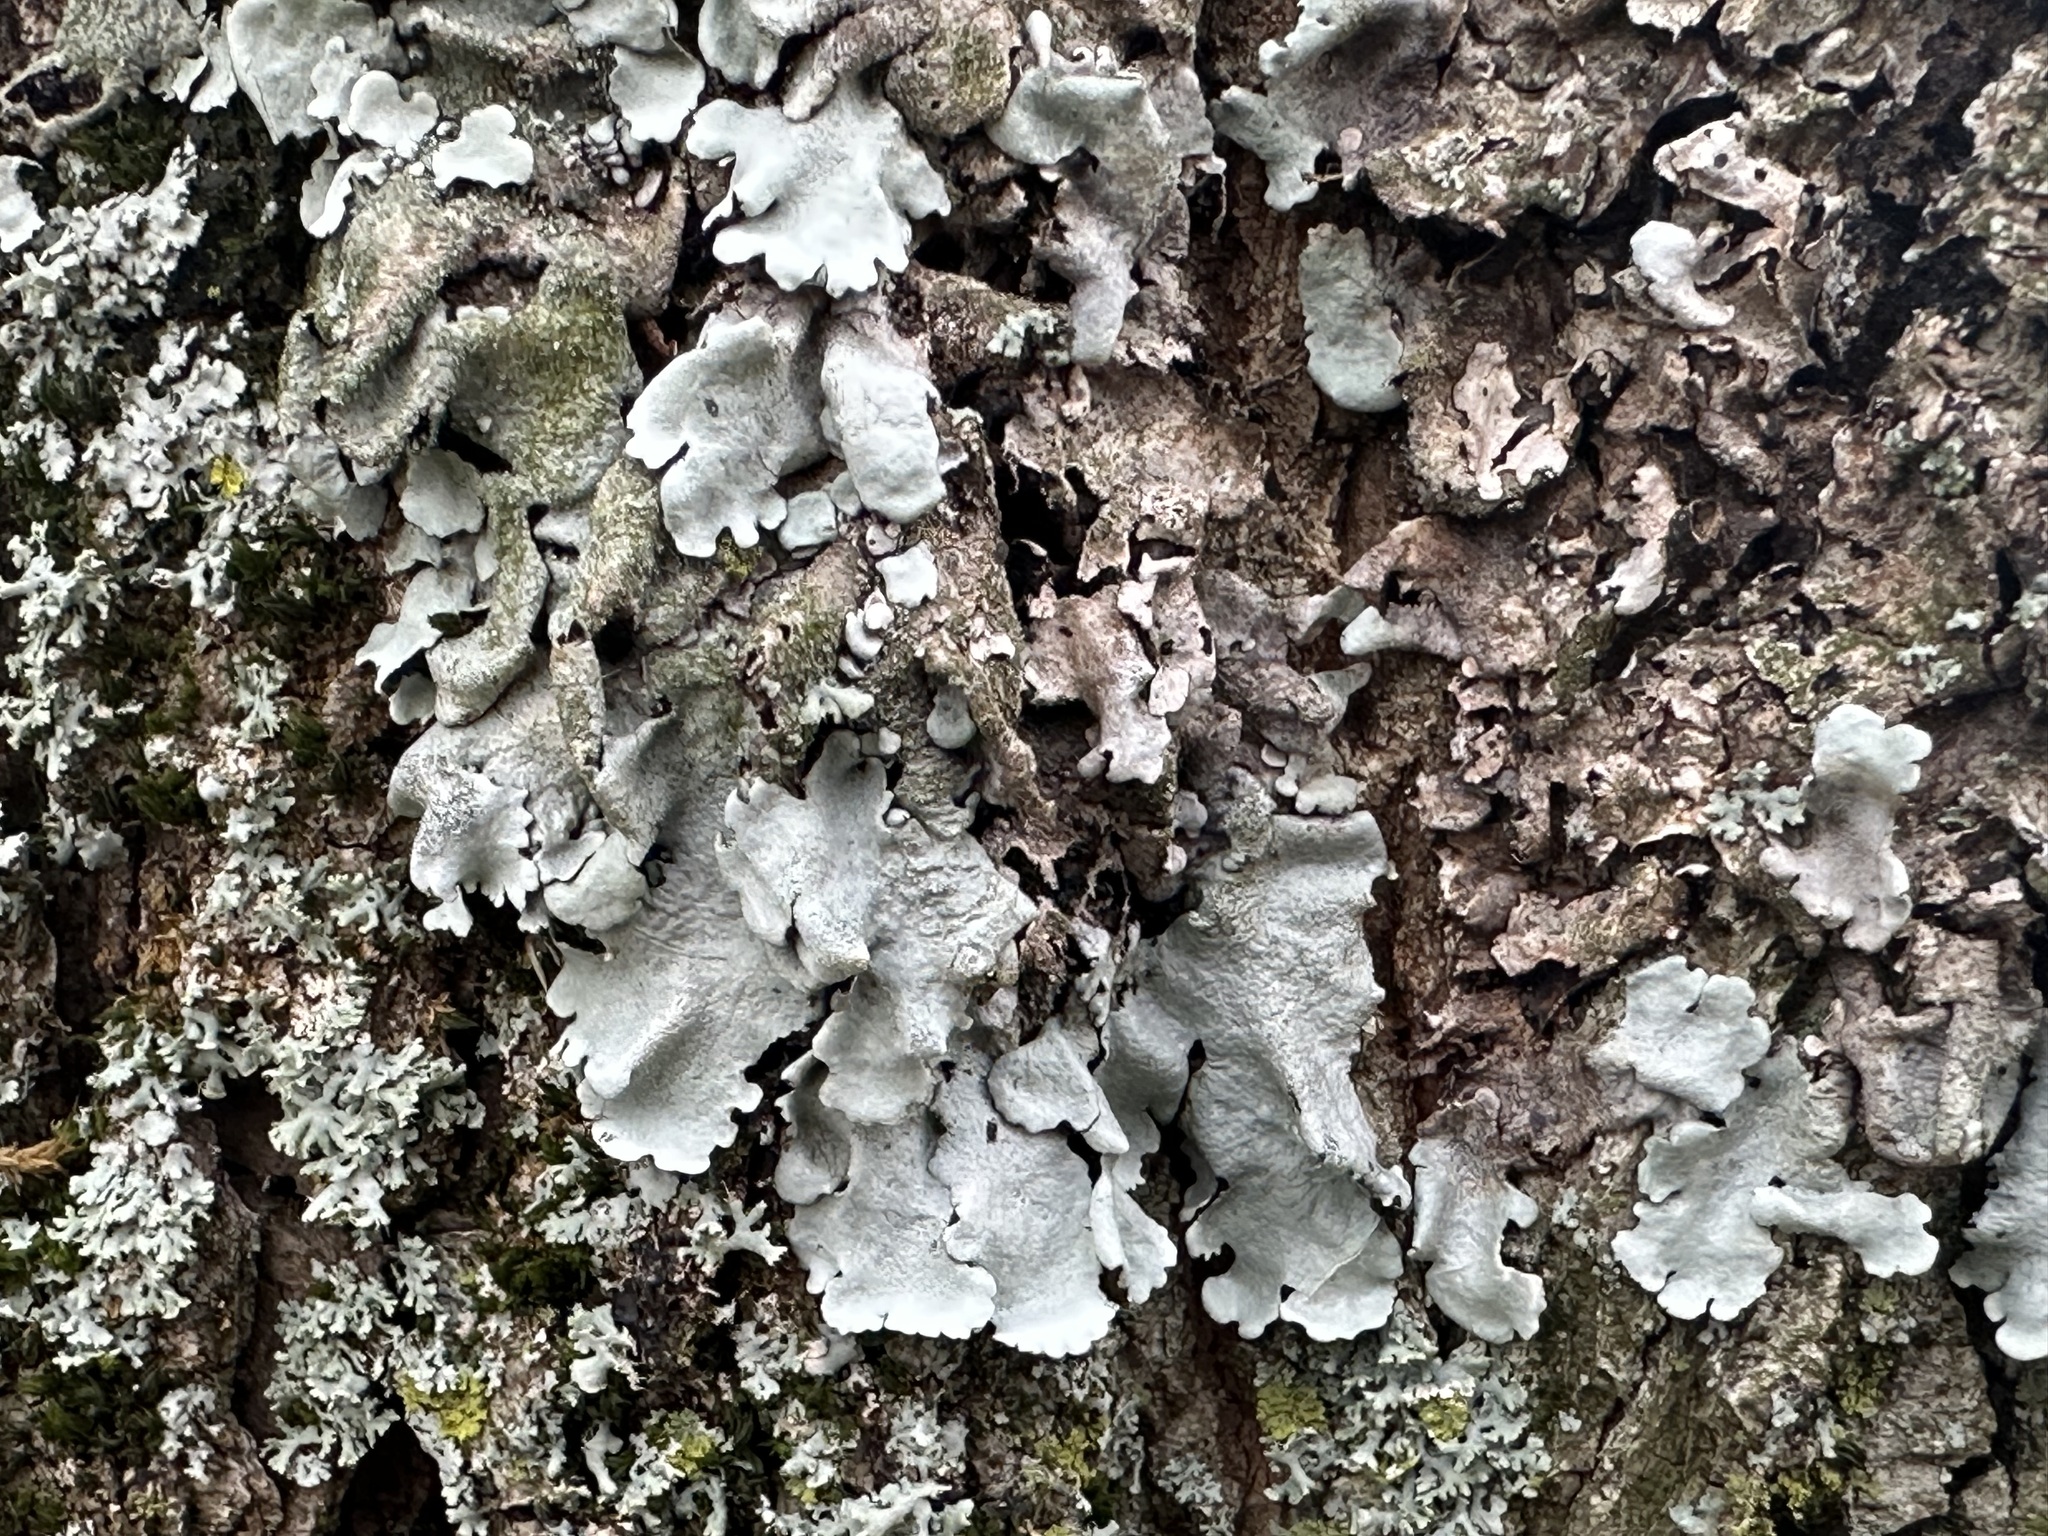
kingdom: Fungi
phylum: Ascomycota
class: Lecanoromycetes
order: Lecanorales
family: Parmeliaceae
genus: Parmelina
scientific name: Parmelina tiliacea
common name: Linden shield lichen
